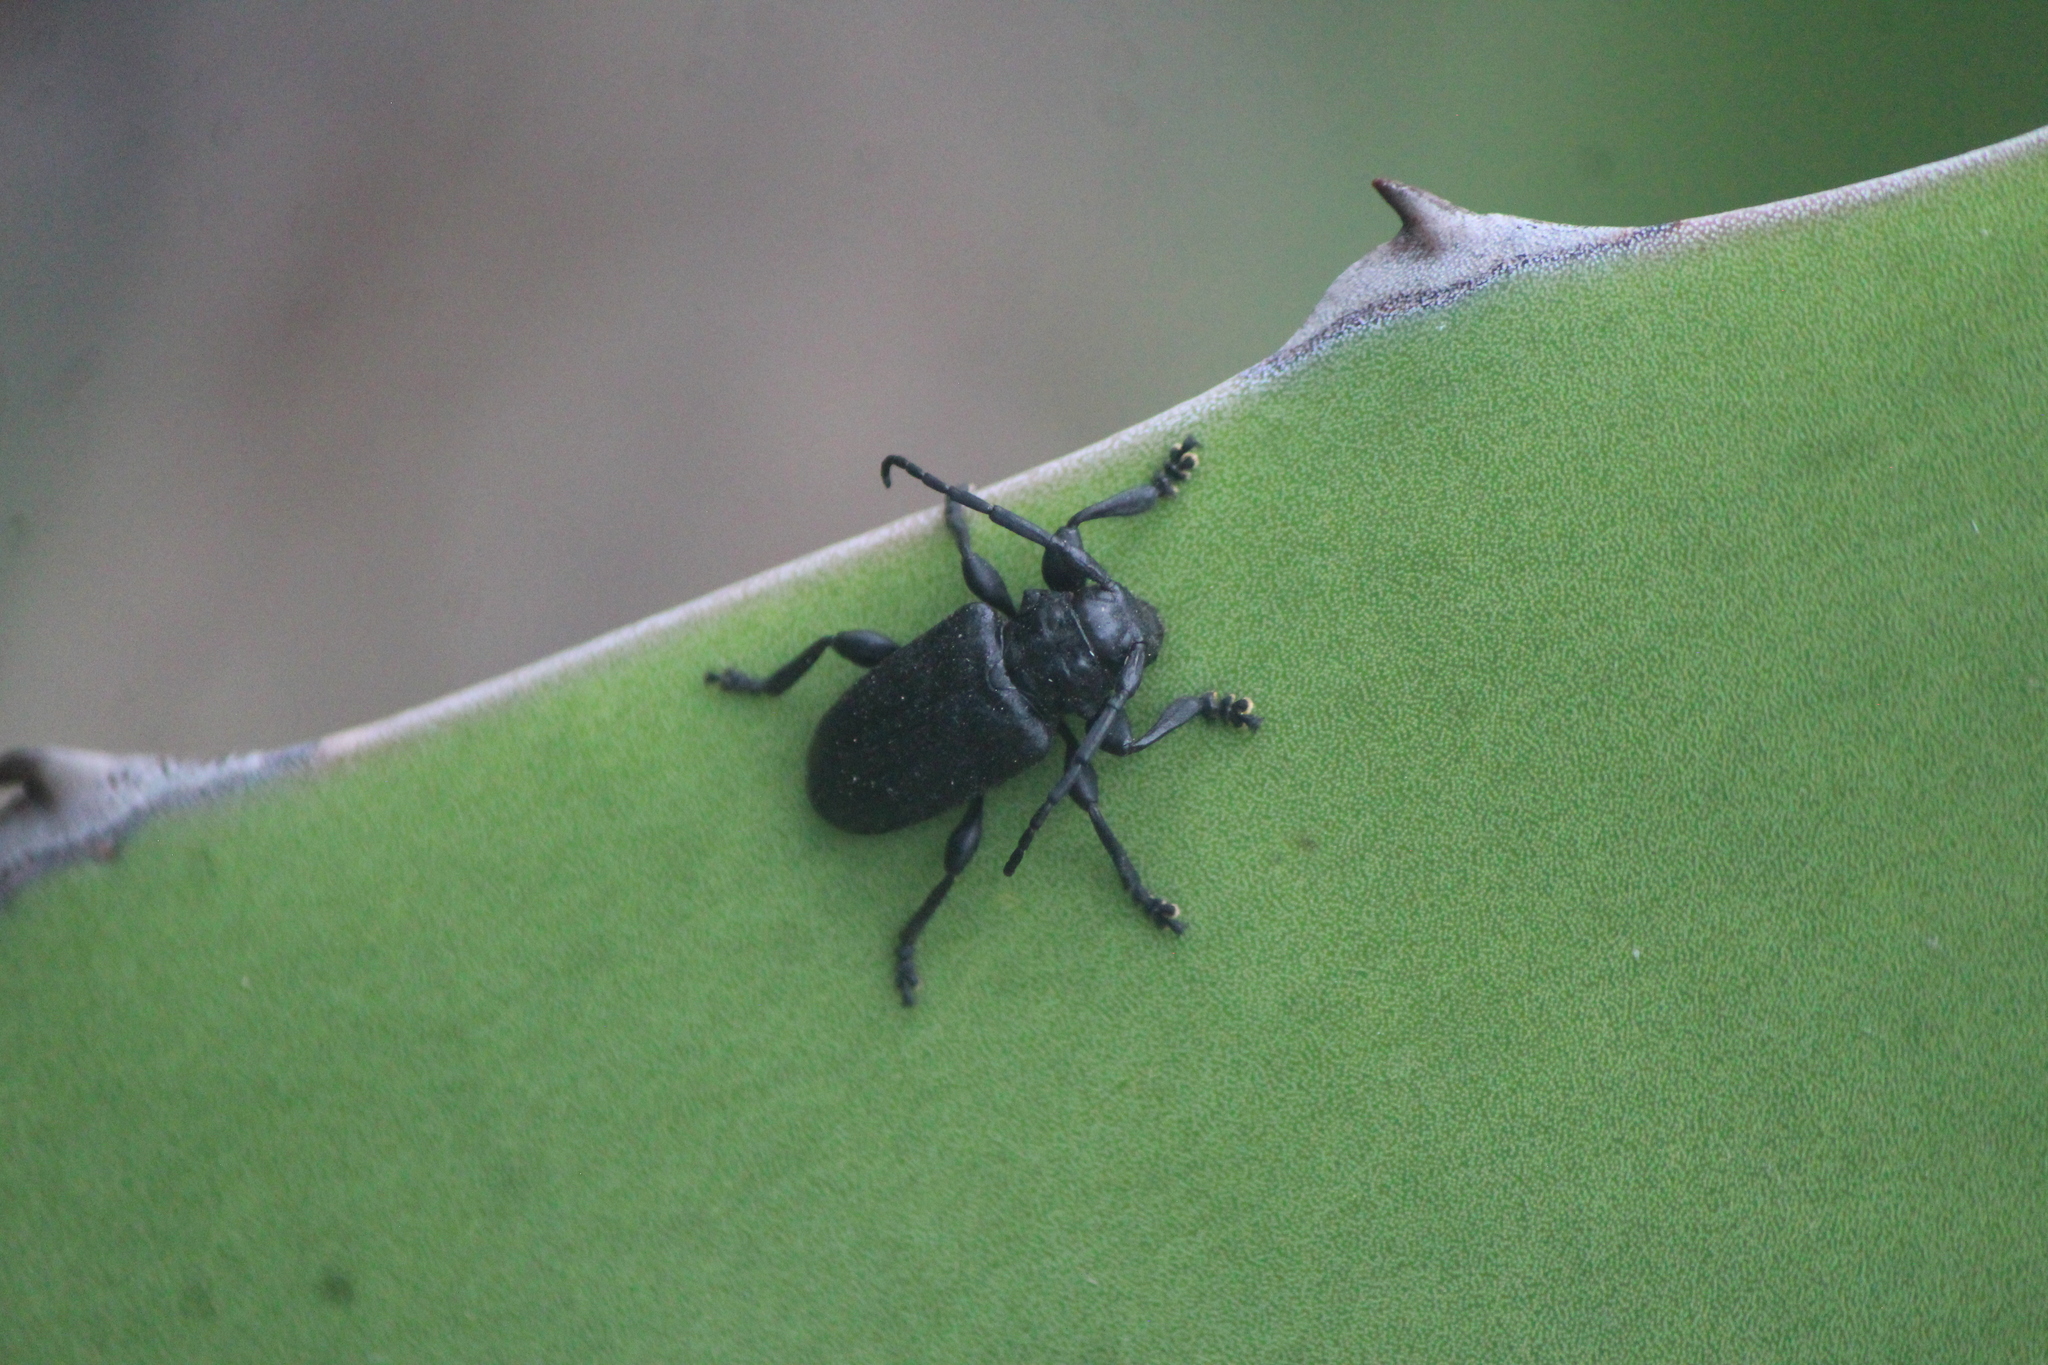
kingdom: Animalia
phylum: Arthropoda
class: Insecta
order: Coleoptera
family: Cerambycidae
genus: Acanthoderes
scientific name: Acanthoderes funeraria
